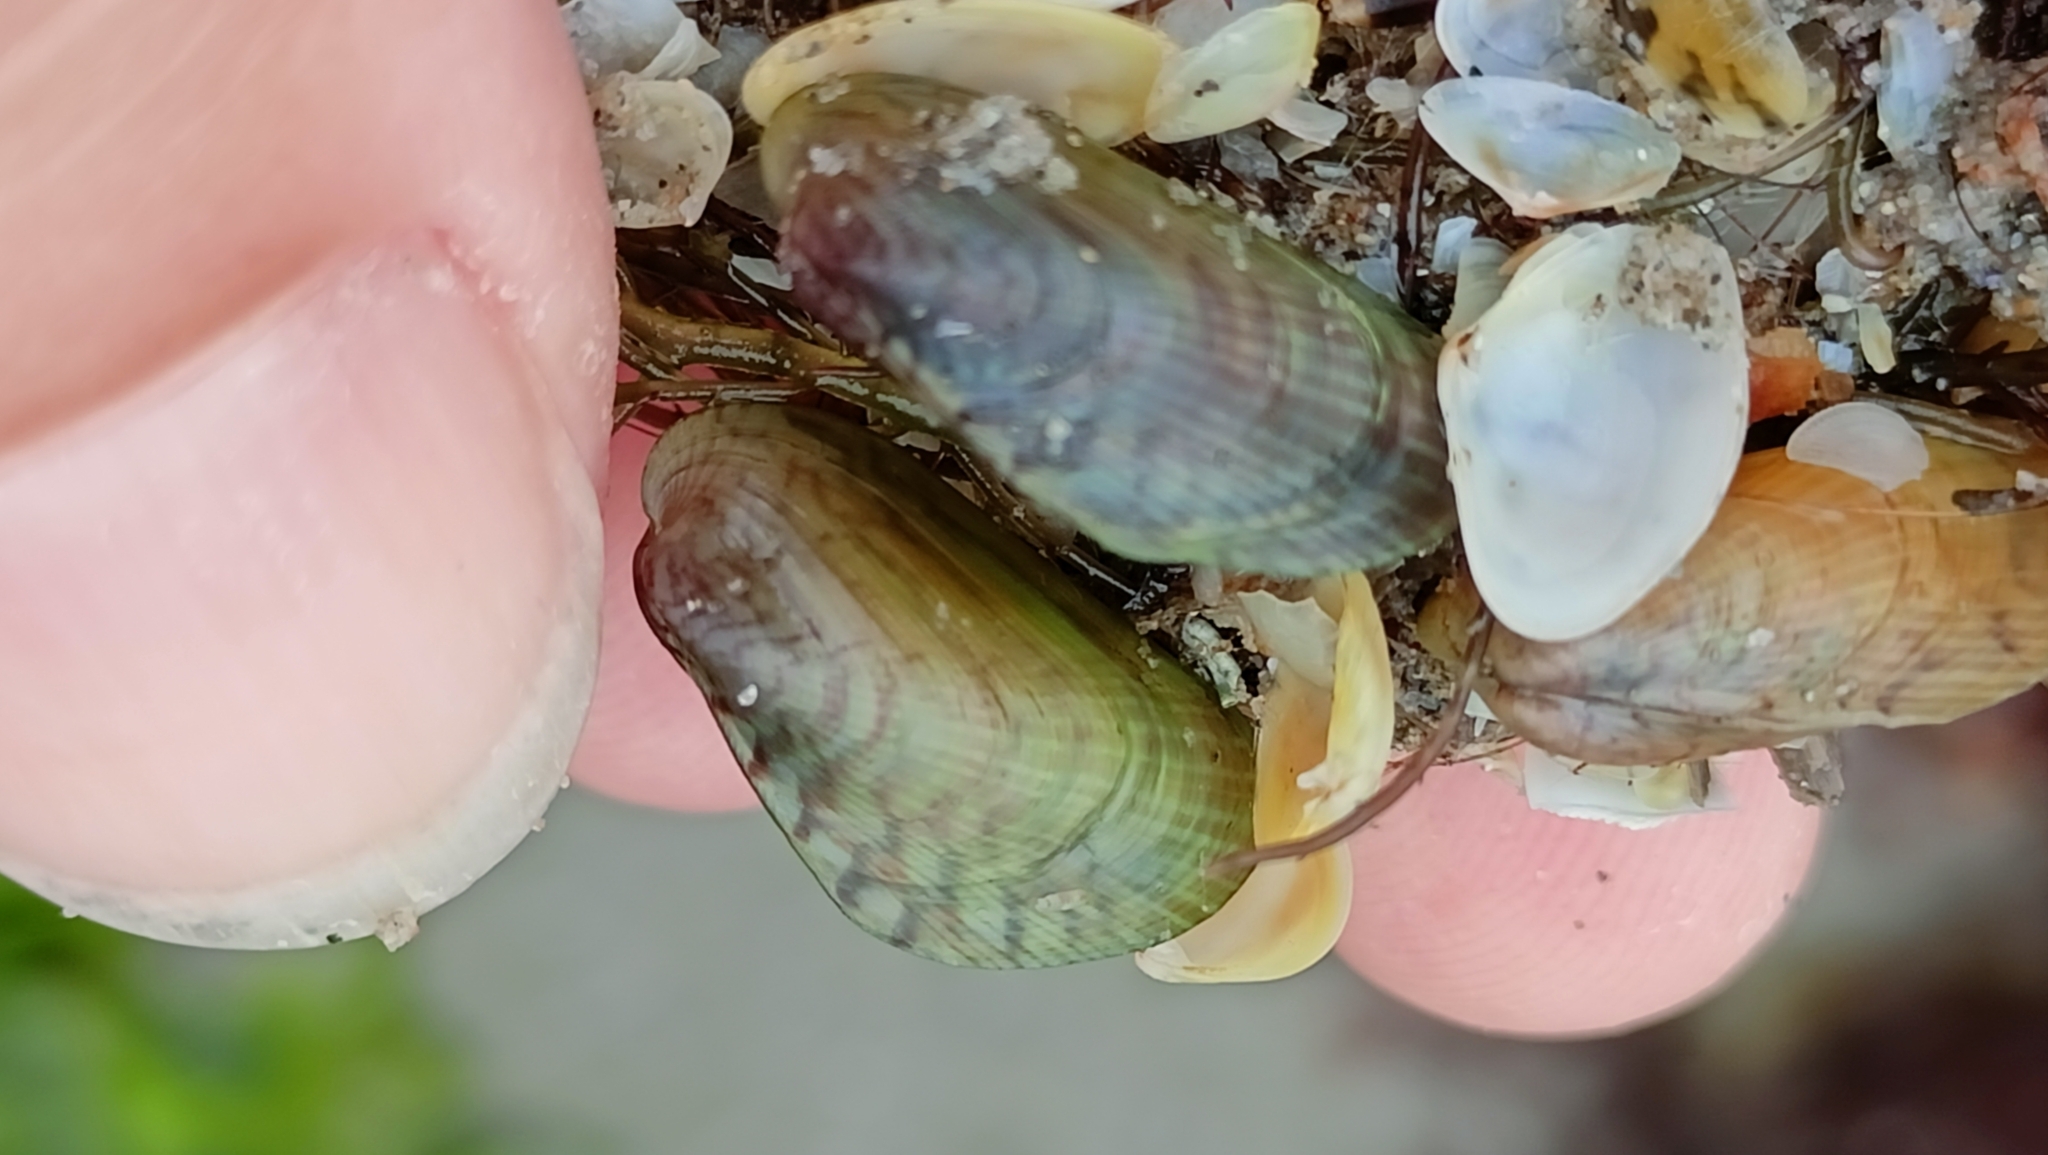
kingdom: Animalia
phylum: Mollusca
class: Bivalvia
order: Mytilida
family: Mytilidae
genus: Arcuatula
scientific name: Arcuatula senhousia
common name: Asian mussel
